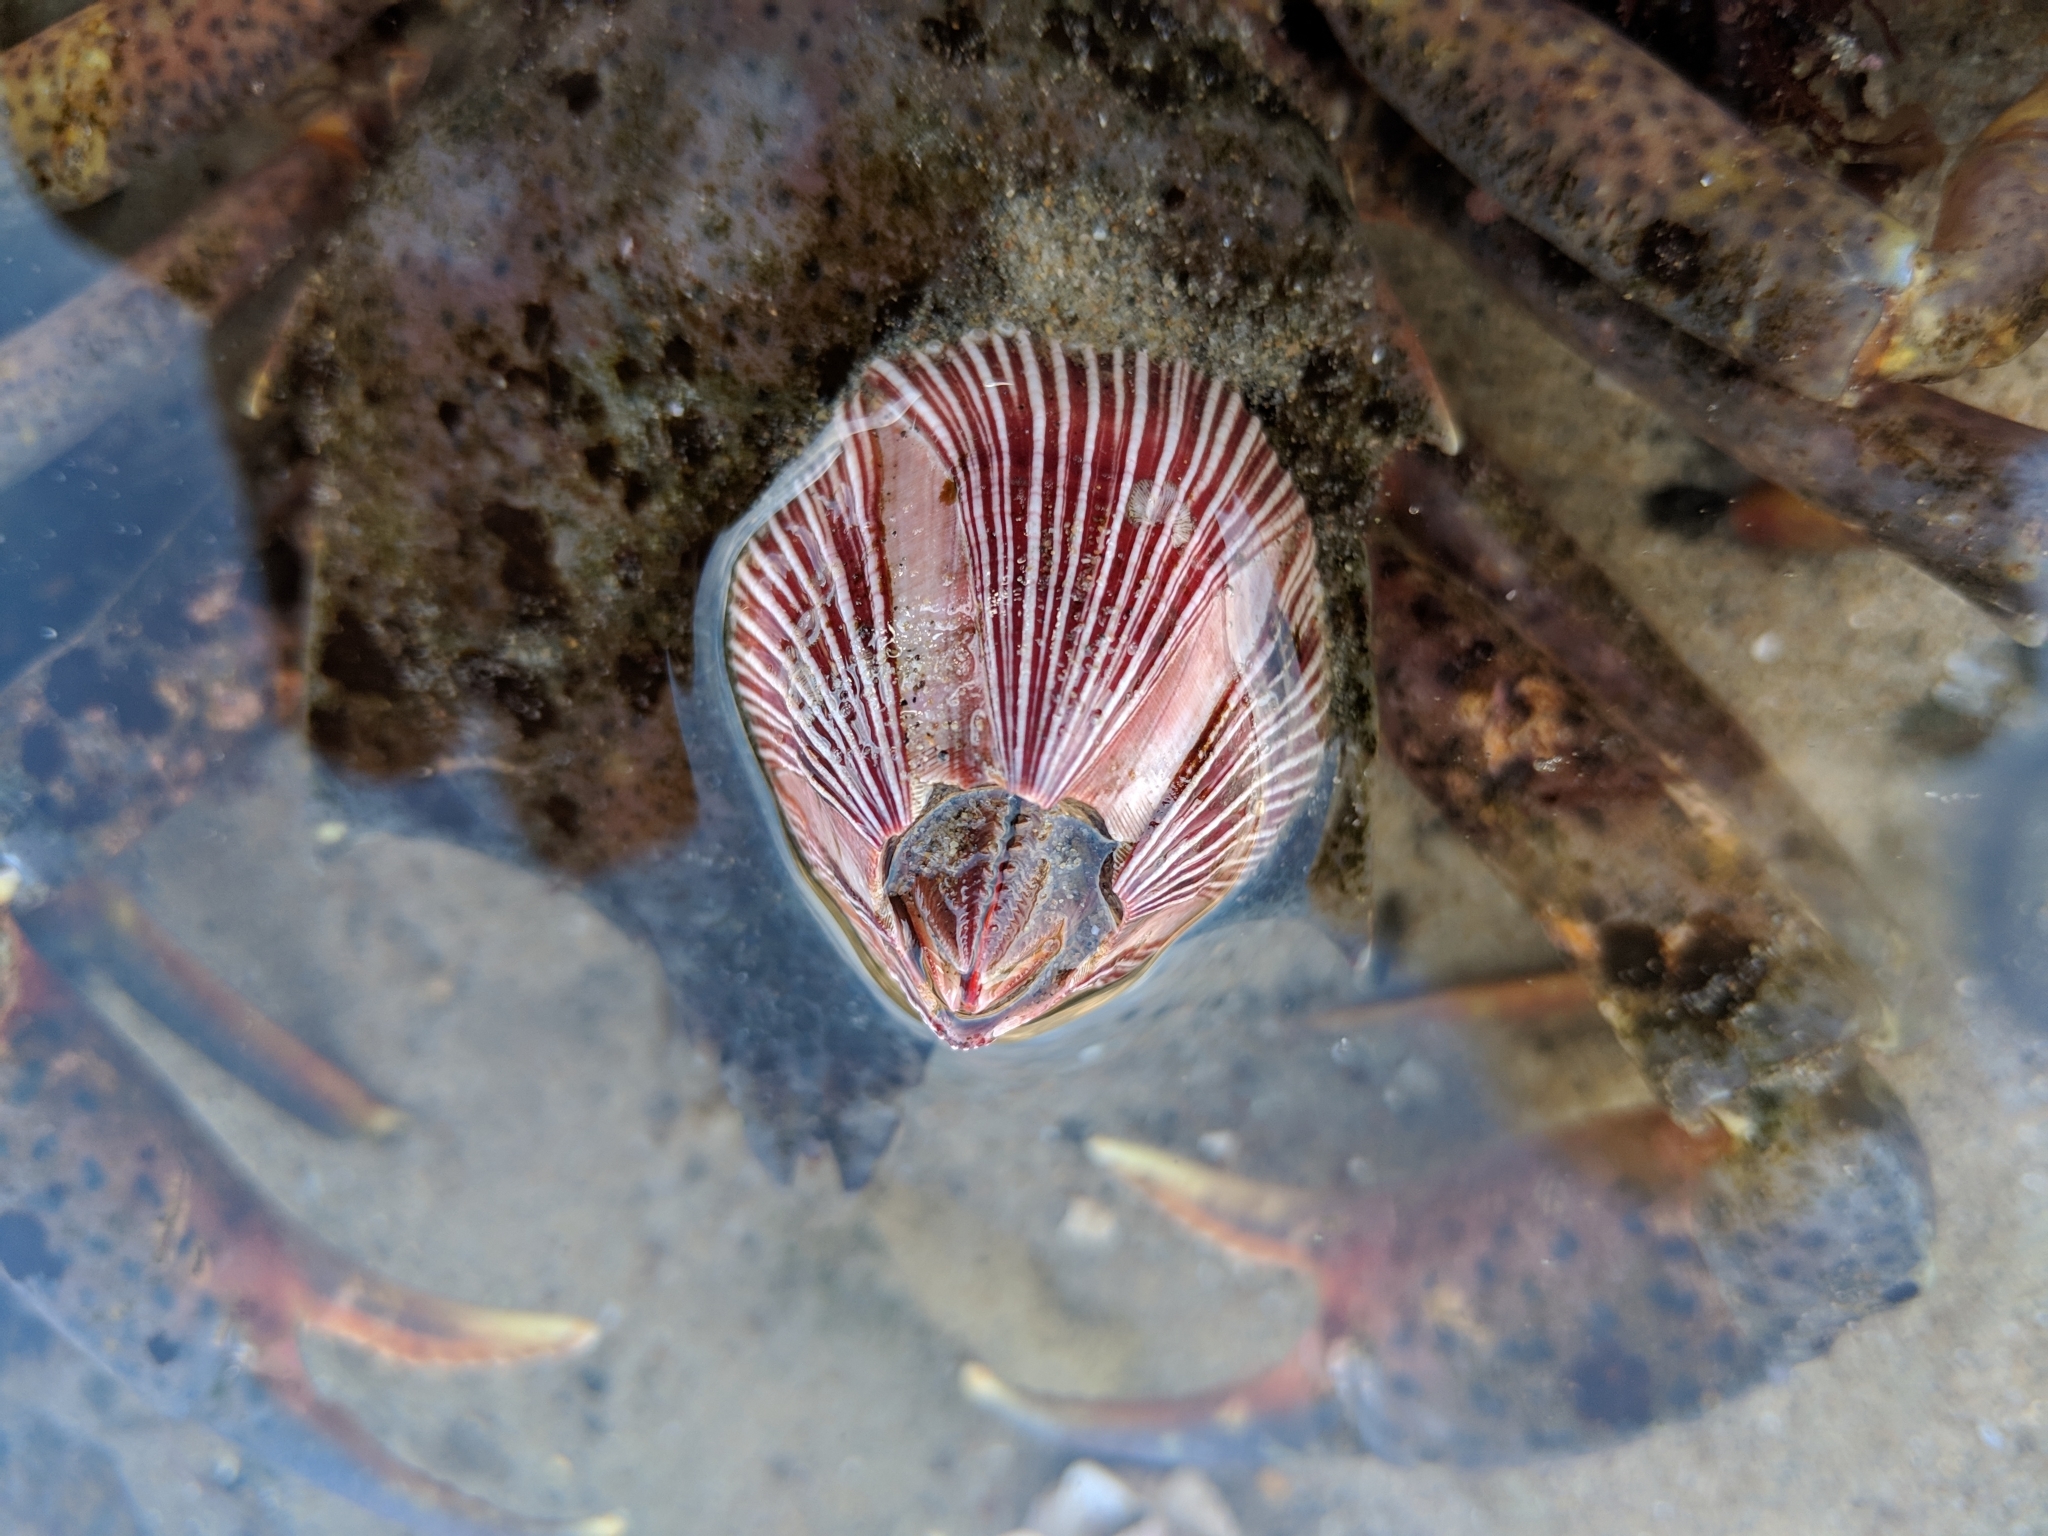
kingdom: Animalia
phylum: Arthropoda
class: Maxillopoda
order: Sessilia
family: Balanidae
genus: Megabalanus
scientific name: Megabalanus californicus
